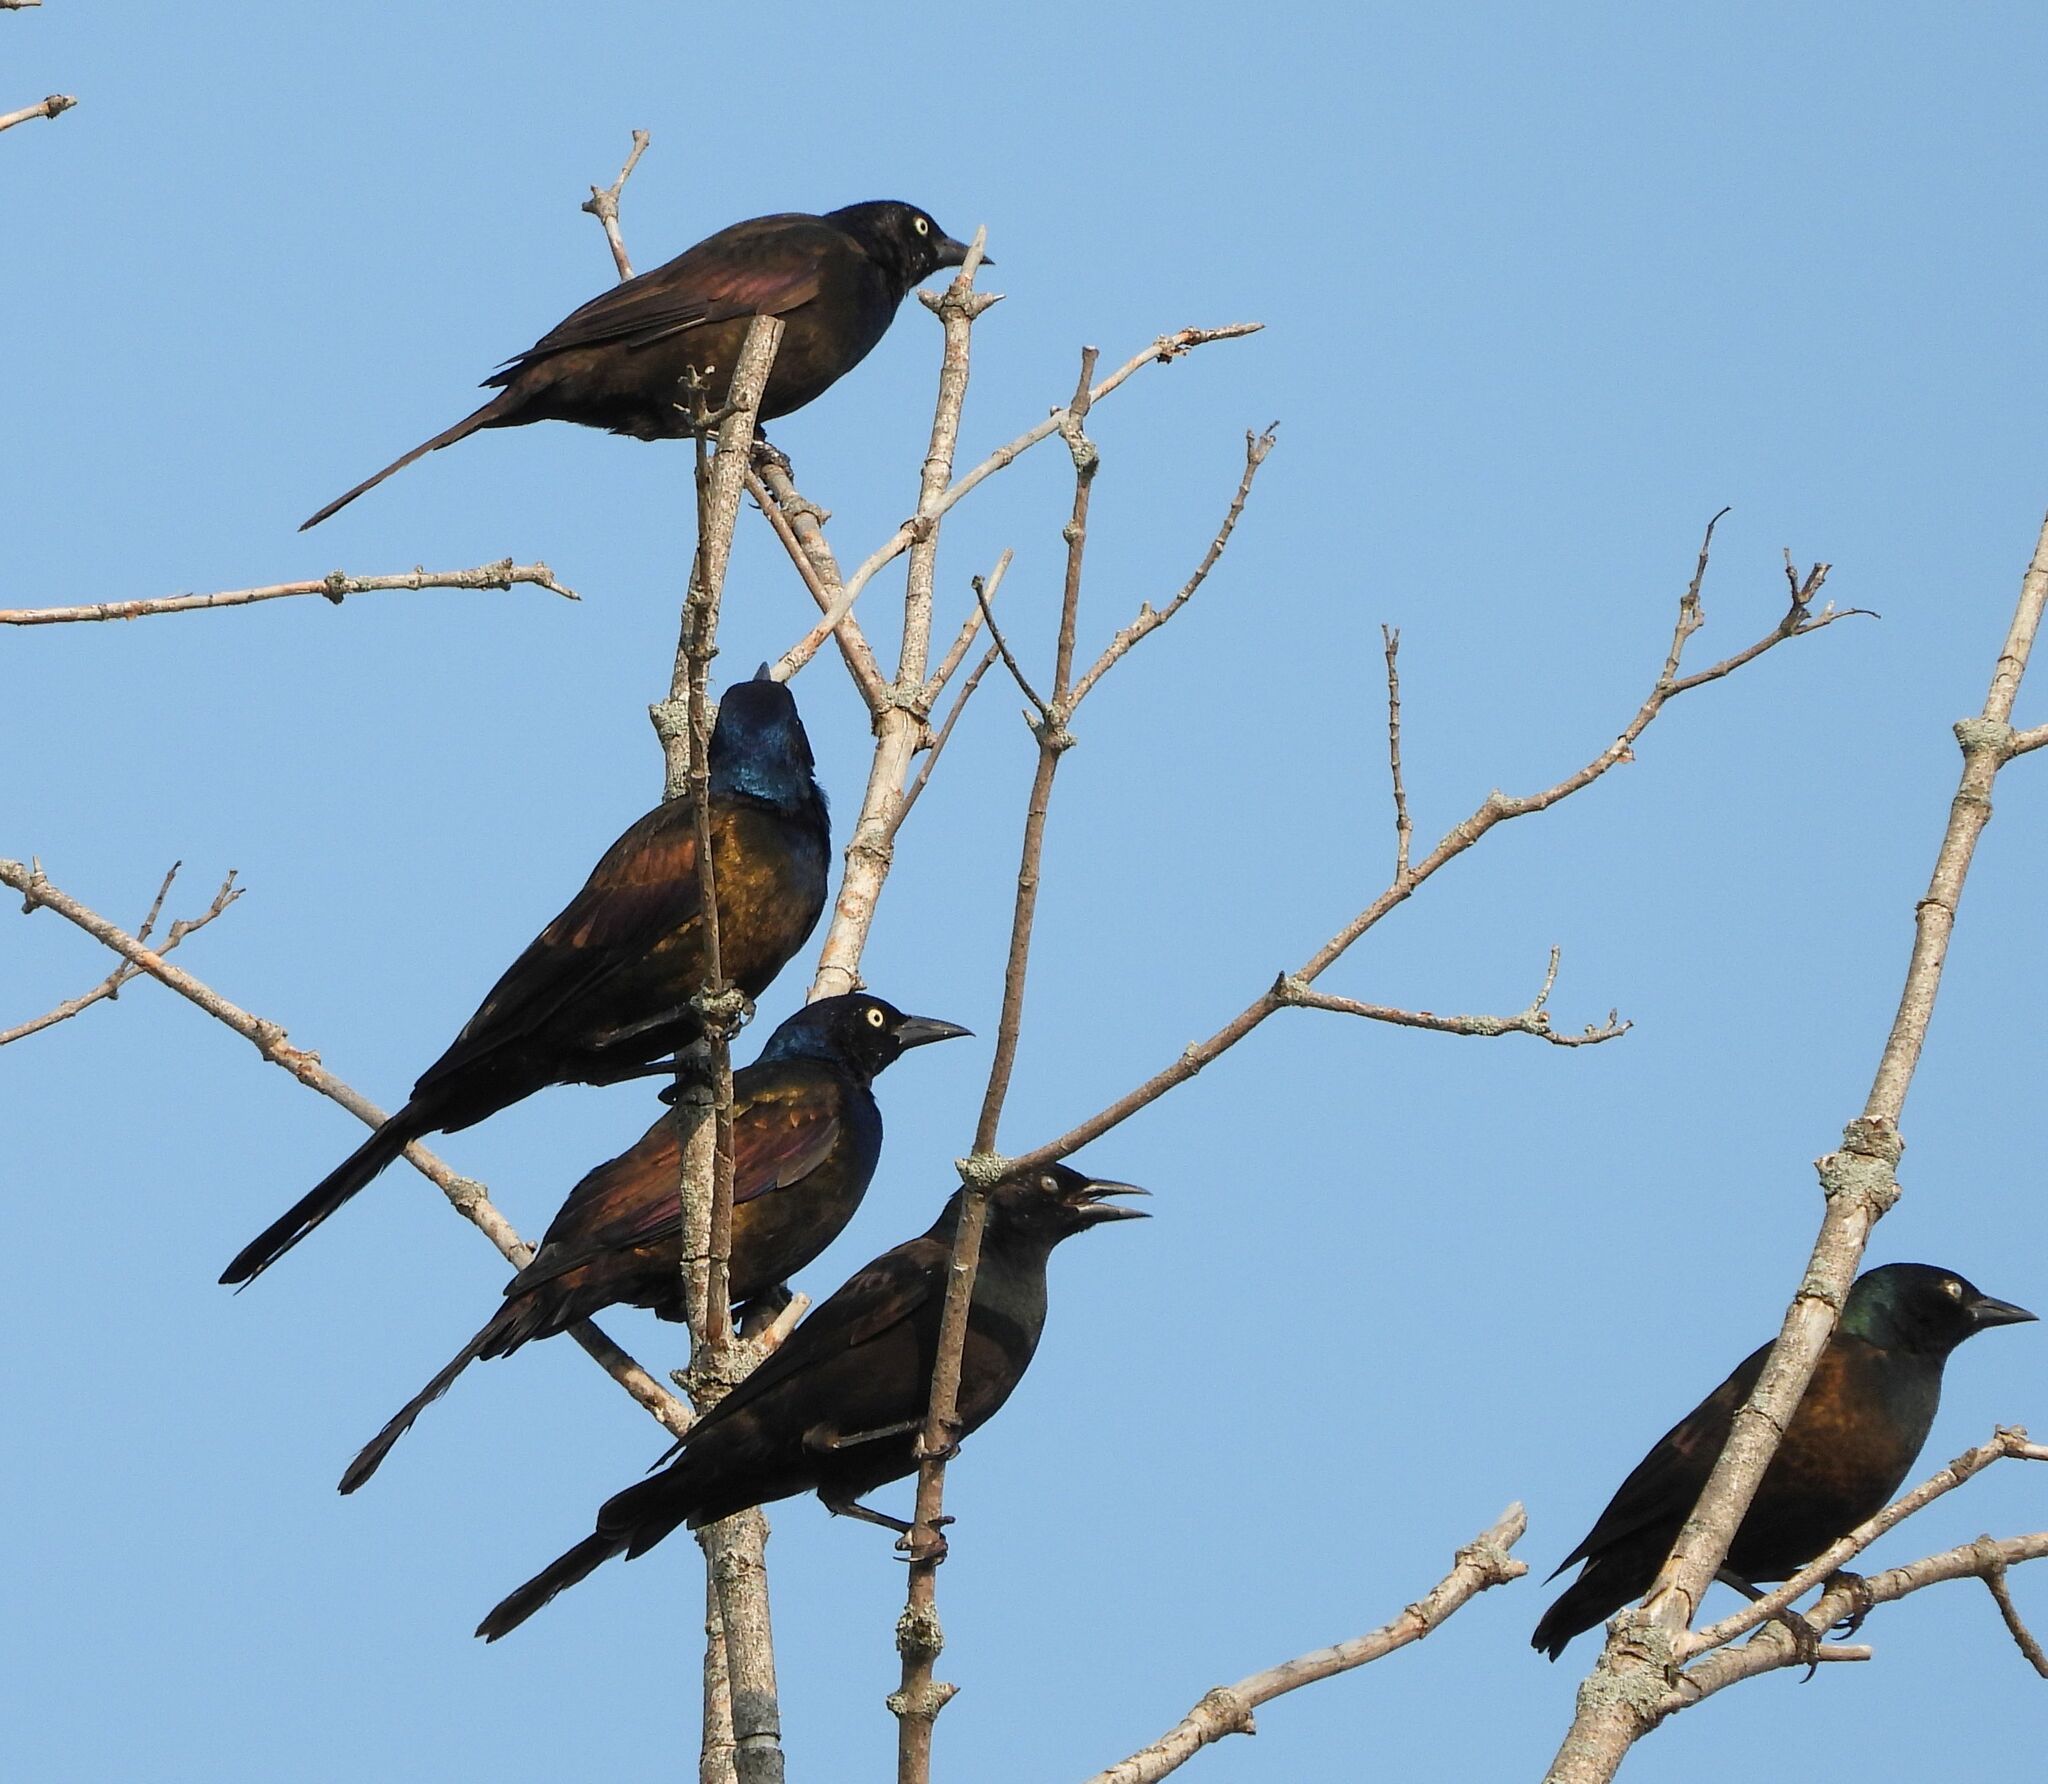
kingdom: Animalia
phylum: Chordata
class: Aves
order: Passeriformes
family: Icteridae
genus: Quiscalus
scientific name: Quiscalus quiscula
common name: Common grackle
